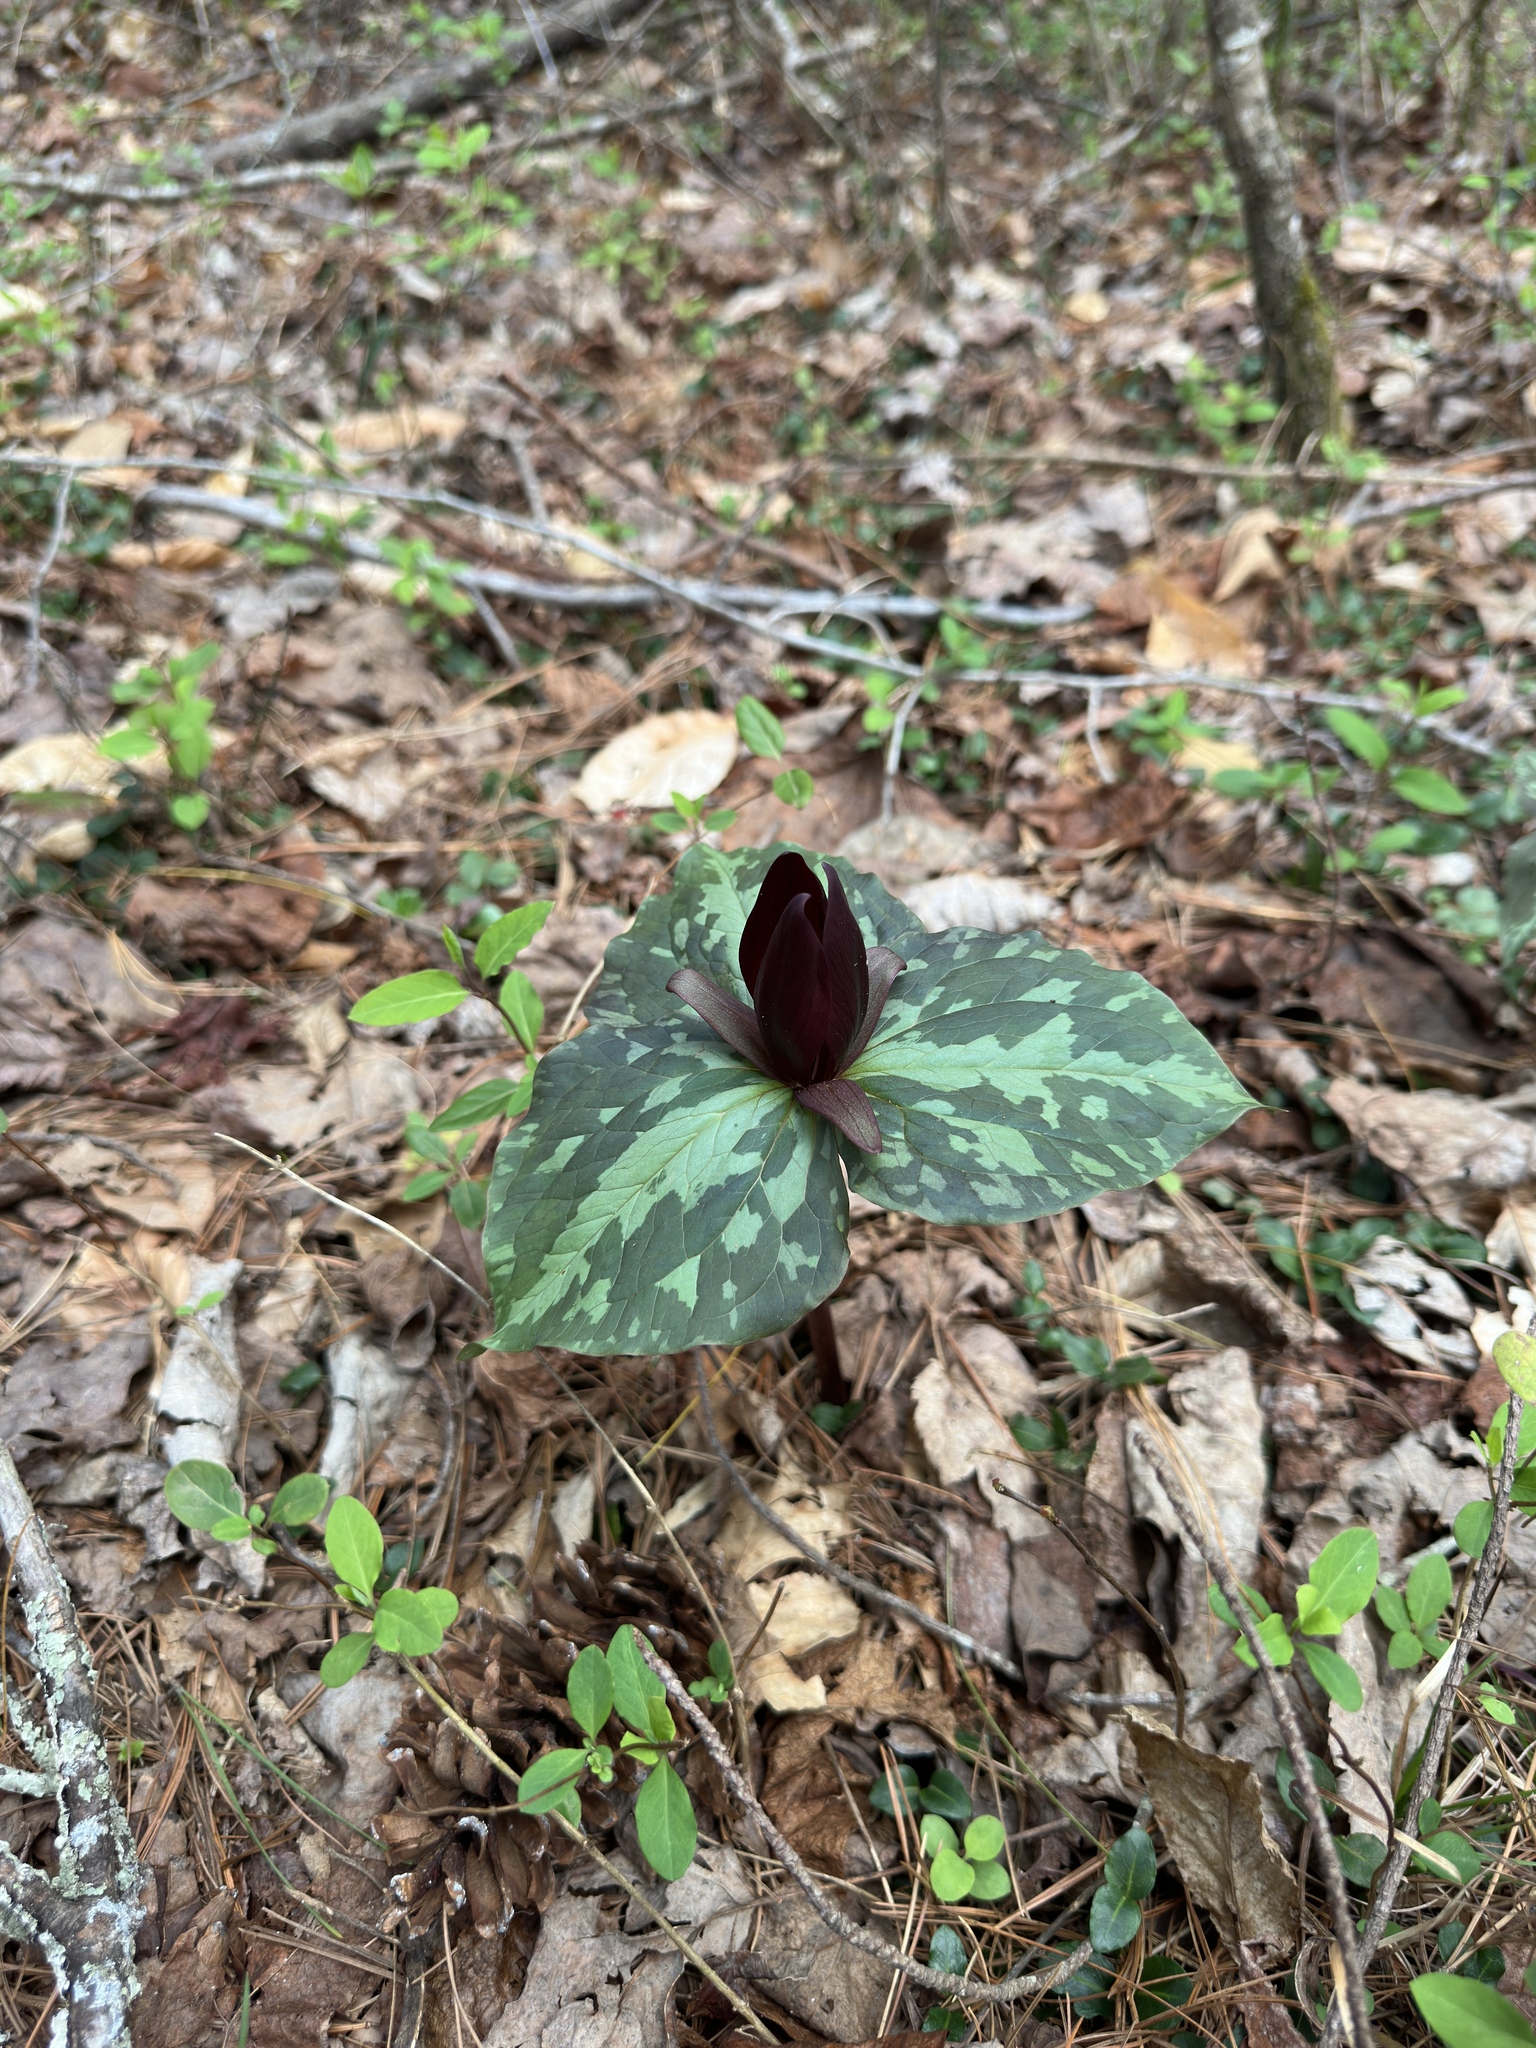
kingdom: Plantae
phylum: Tracheophyta
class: Liliopsida
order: Liliales
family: Melanthiaceae
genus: Trillium
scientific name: Trillium cuneatum
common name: Cuneate trillium
